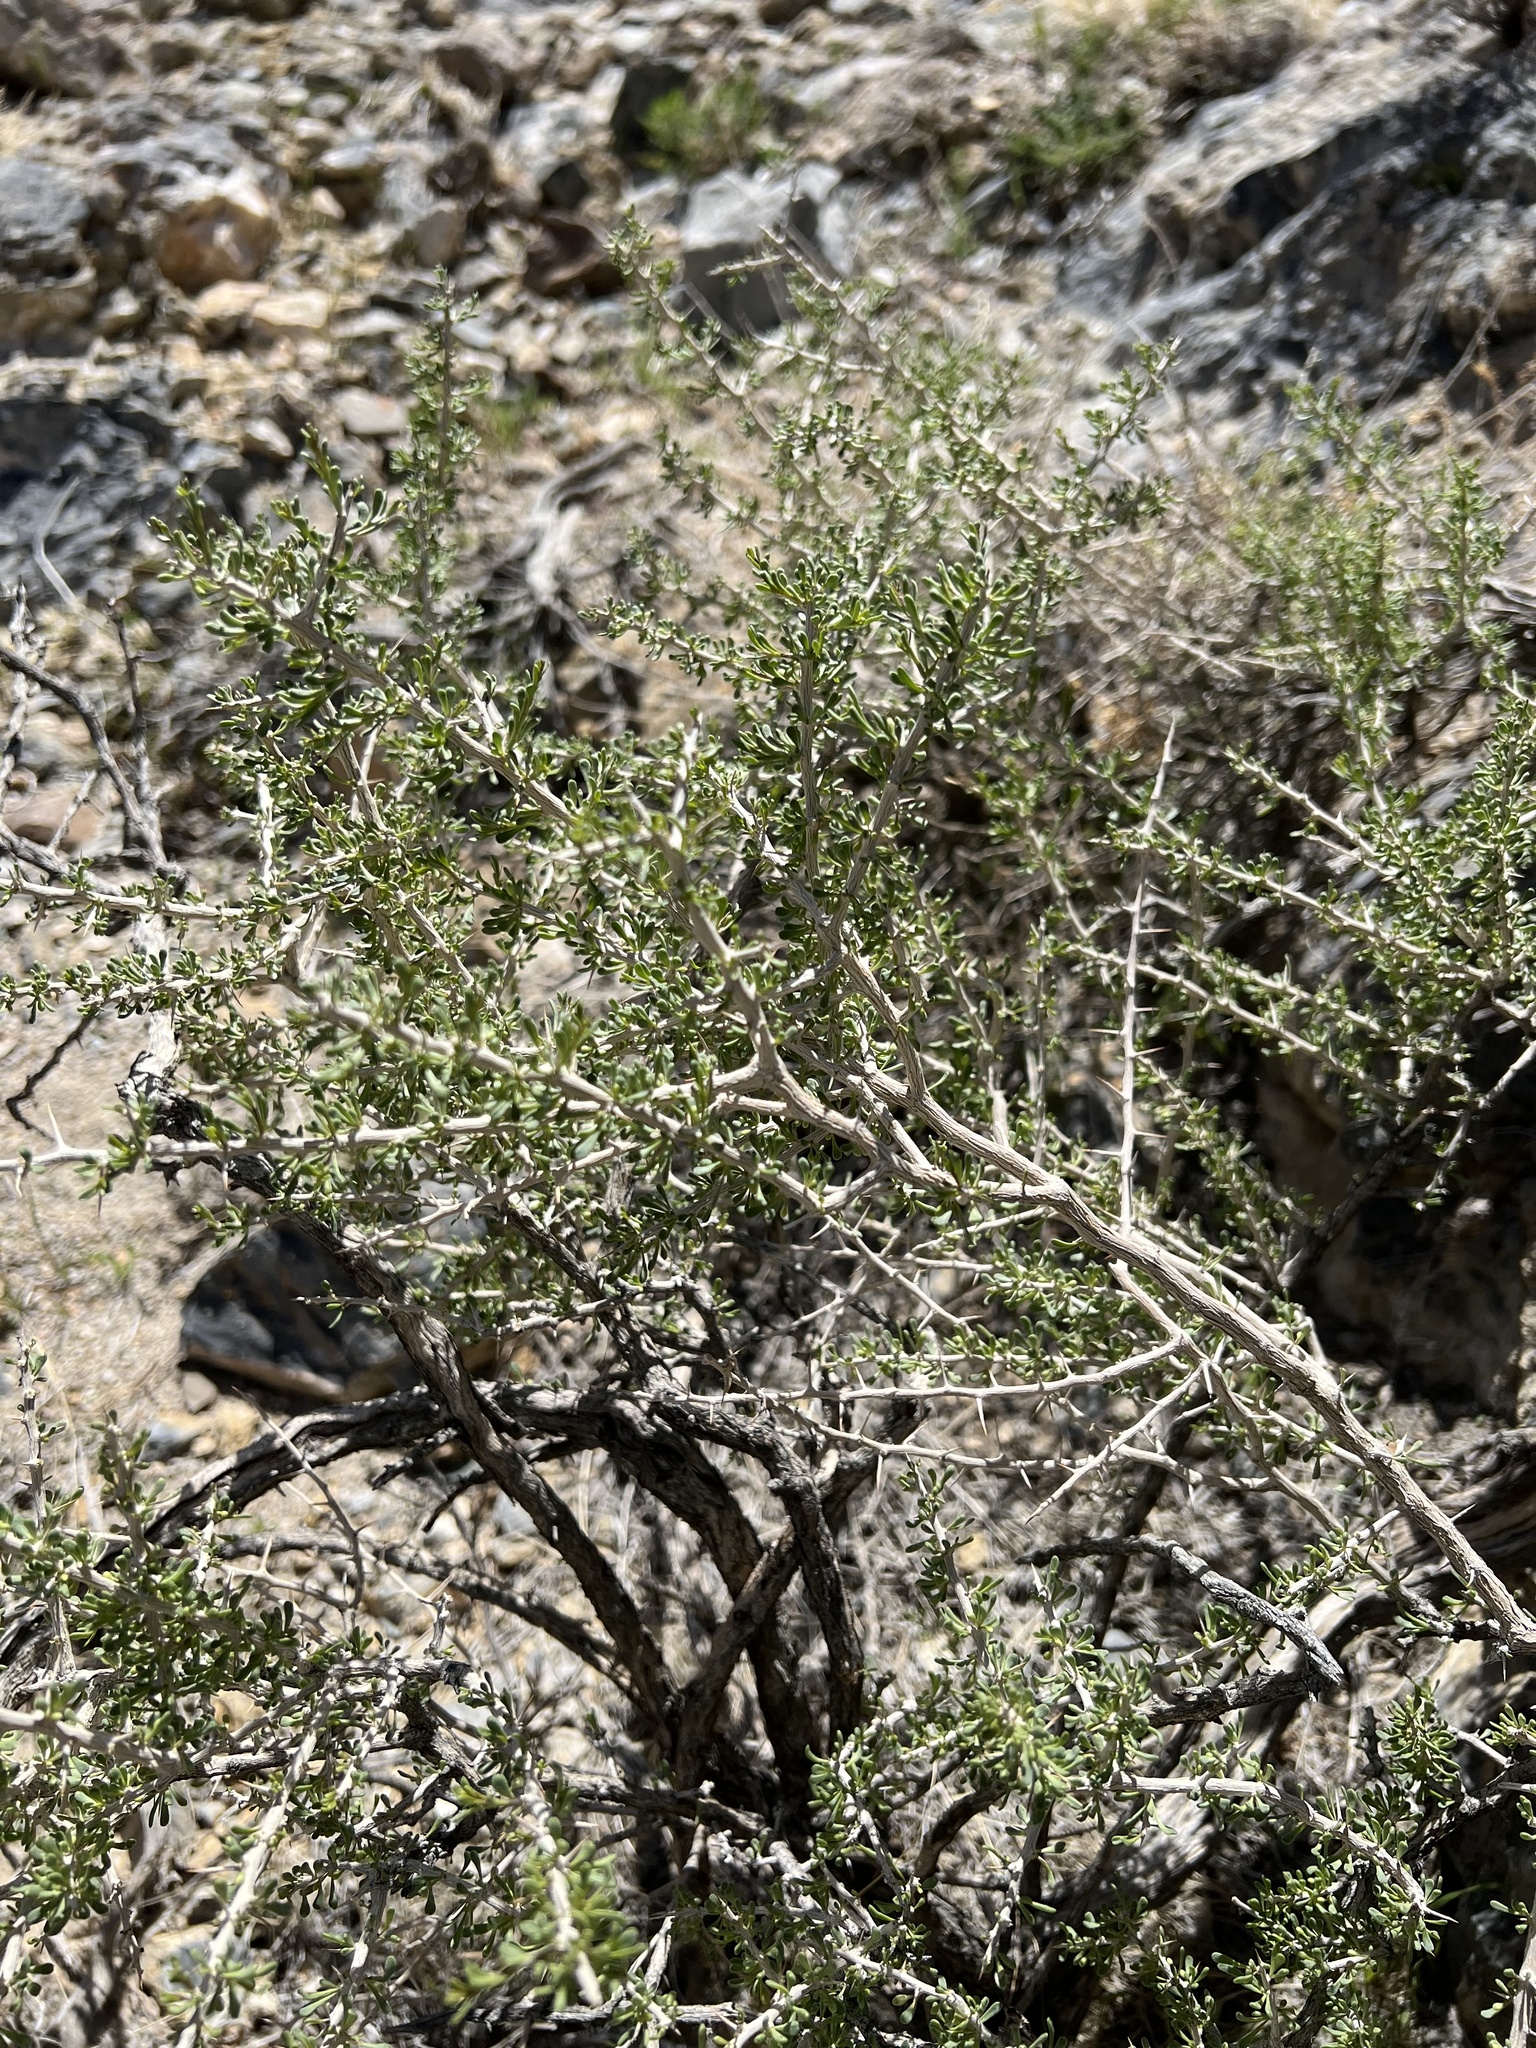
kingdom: Plantae
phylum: Tracheophyta
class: Magnoliopsida
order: Solanales
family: Solanaceae
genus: Lycium
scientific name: Lycium andersonii
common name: Water-jacket
